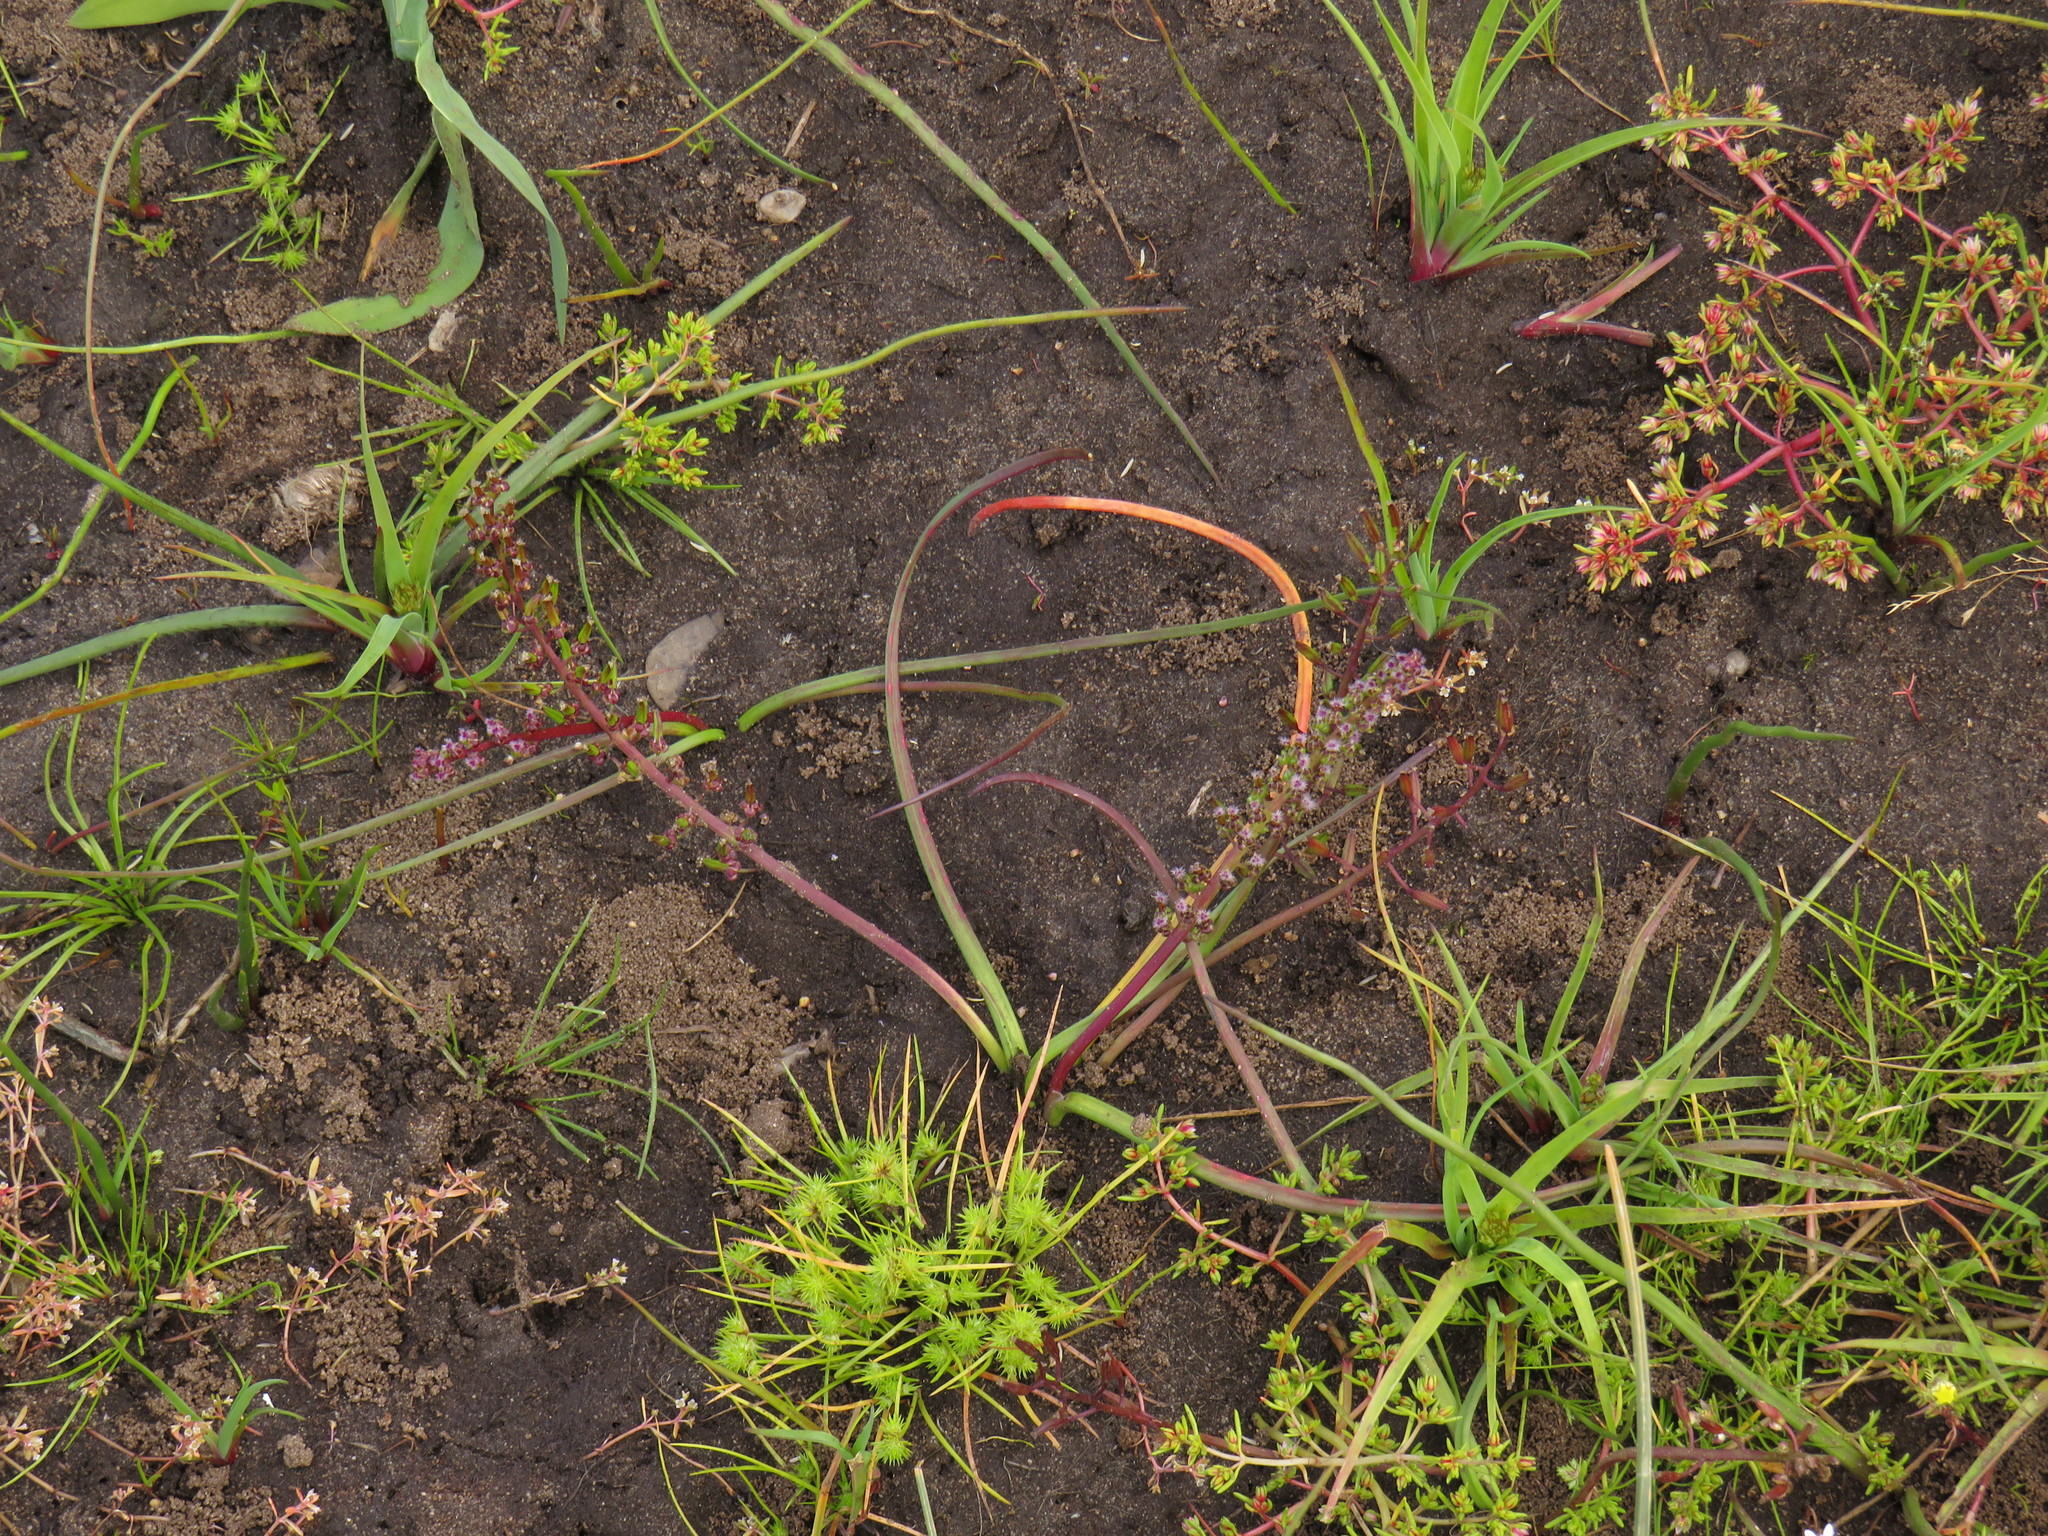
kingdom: Plantae
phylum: Tracheophyta
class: Liliopsida
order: Alismatales
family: Juncaginaceae
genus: Triglochin
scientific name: Triglochin bulbosa
